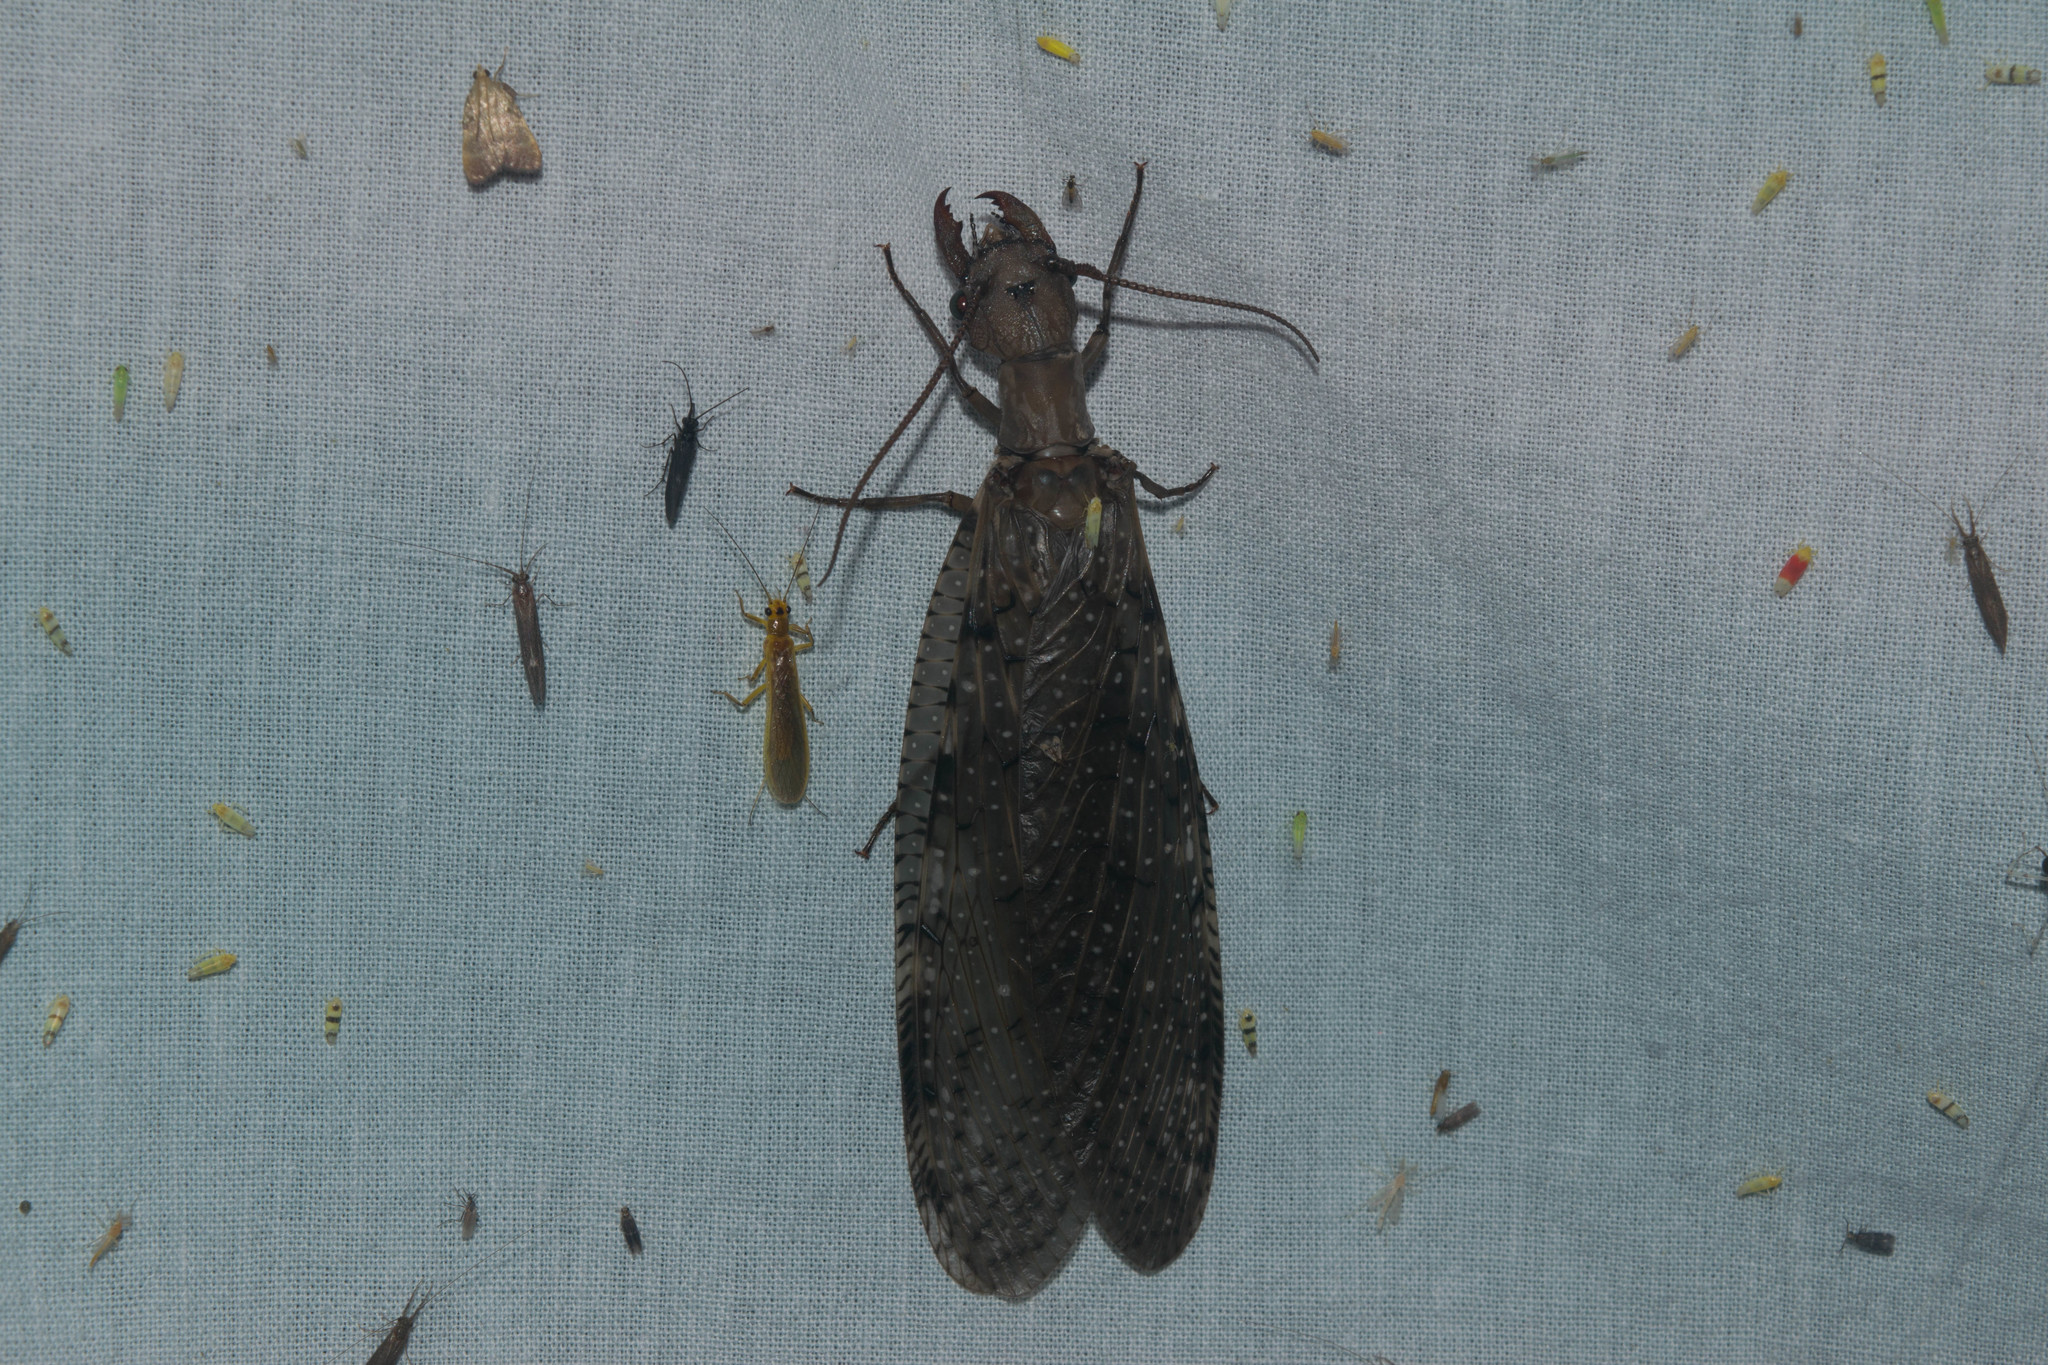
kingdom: Animalia
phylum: Arthropoda
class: Insecta
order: Megaloptera
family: Corydalidae
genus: Corydalus
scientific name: Corydalus cornutus
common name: Dobsonfly
